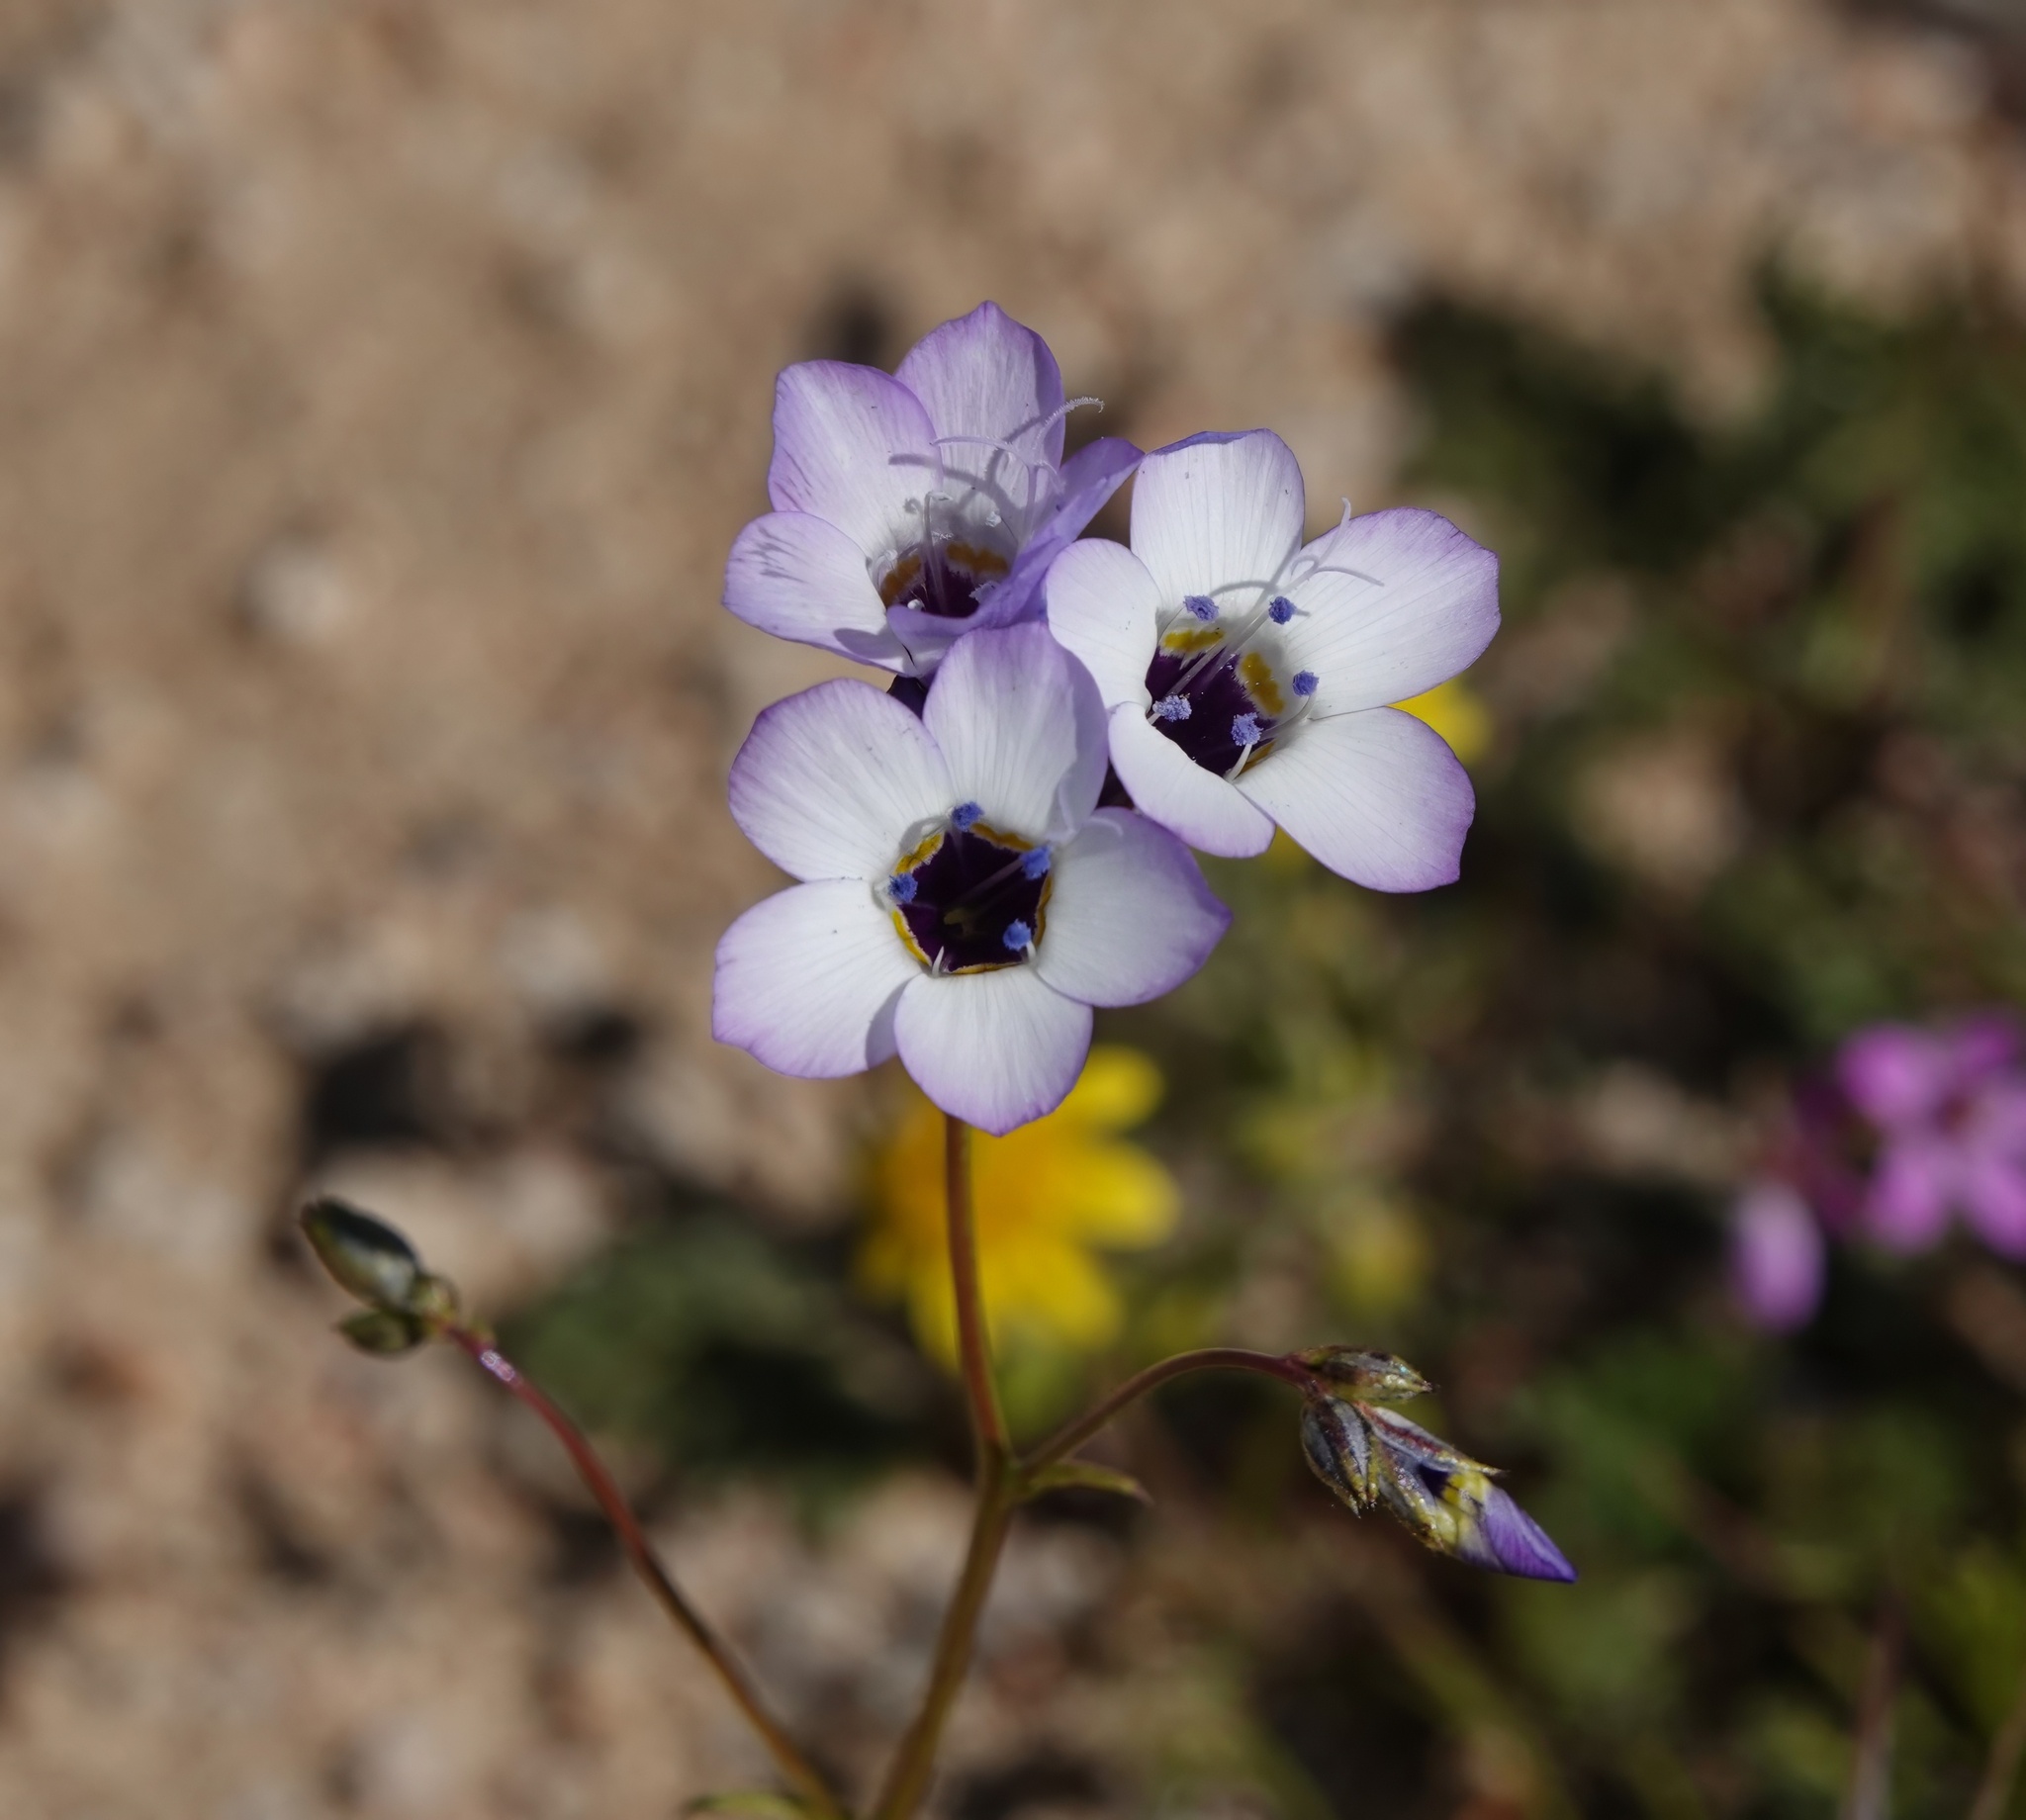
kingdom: Plantae
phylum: Tracheophyta
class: Magnoliopsida
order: Ericales
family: Polemoniaceae
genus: Gilia
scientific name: Gilia latiflora
